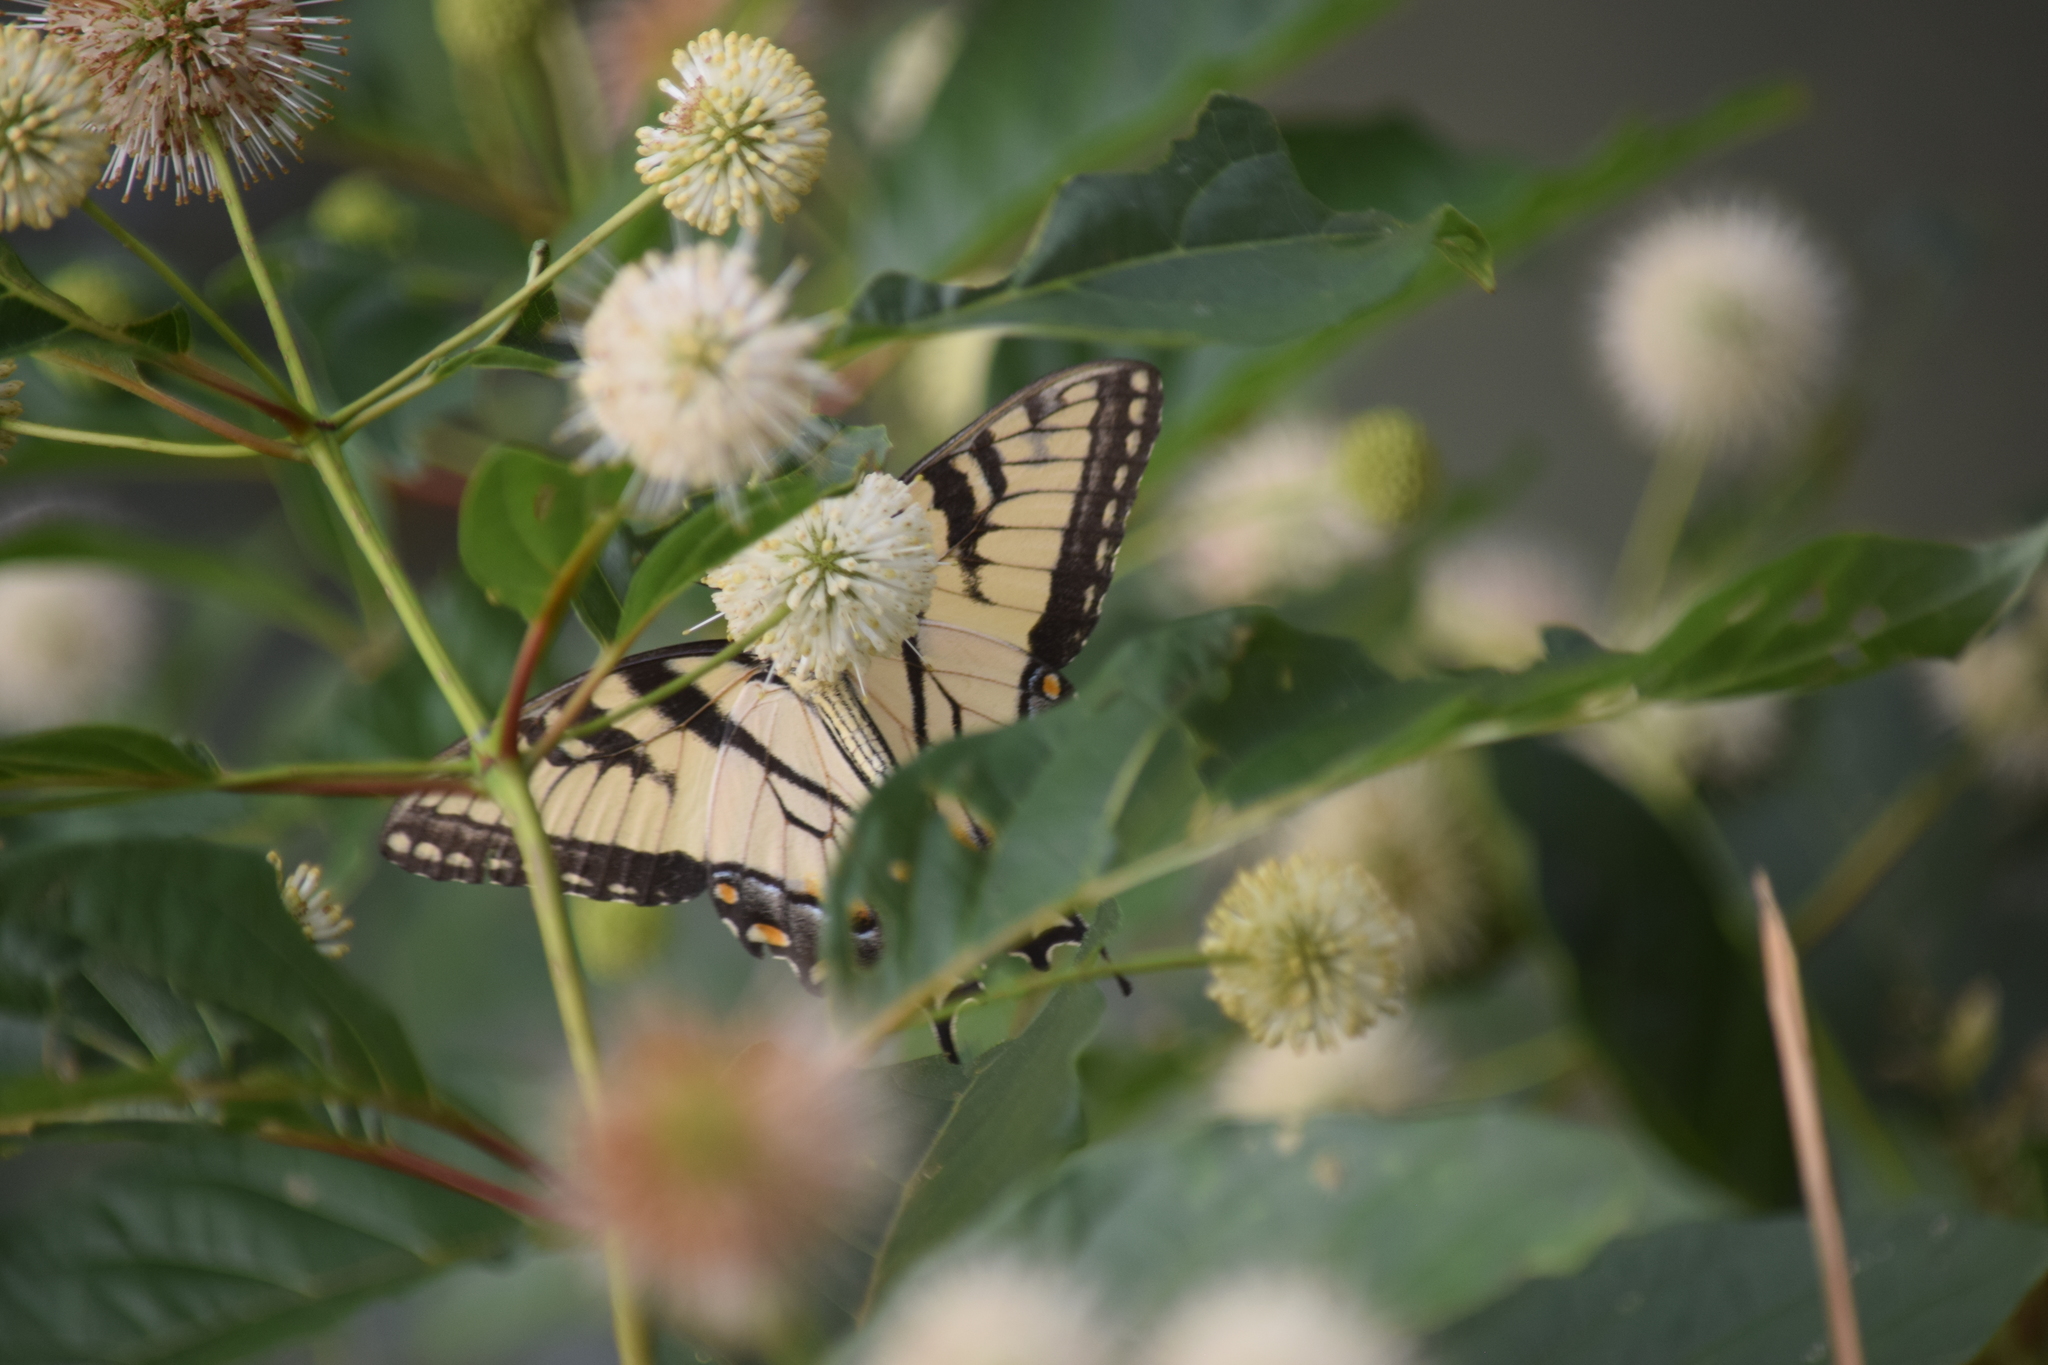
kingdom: Animalia
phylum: Arthropoda
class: Insecta
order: Lepidoptera
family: Papilionidae
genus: Papilio
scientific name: Papilio glaucus
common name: Tiger swallowtail
